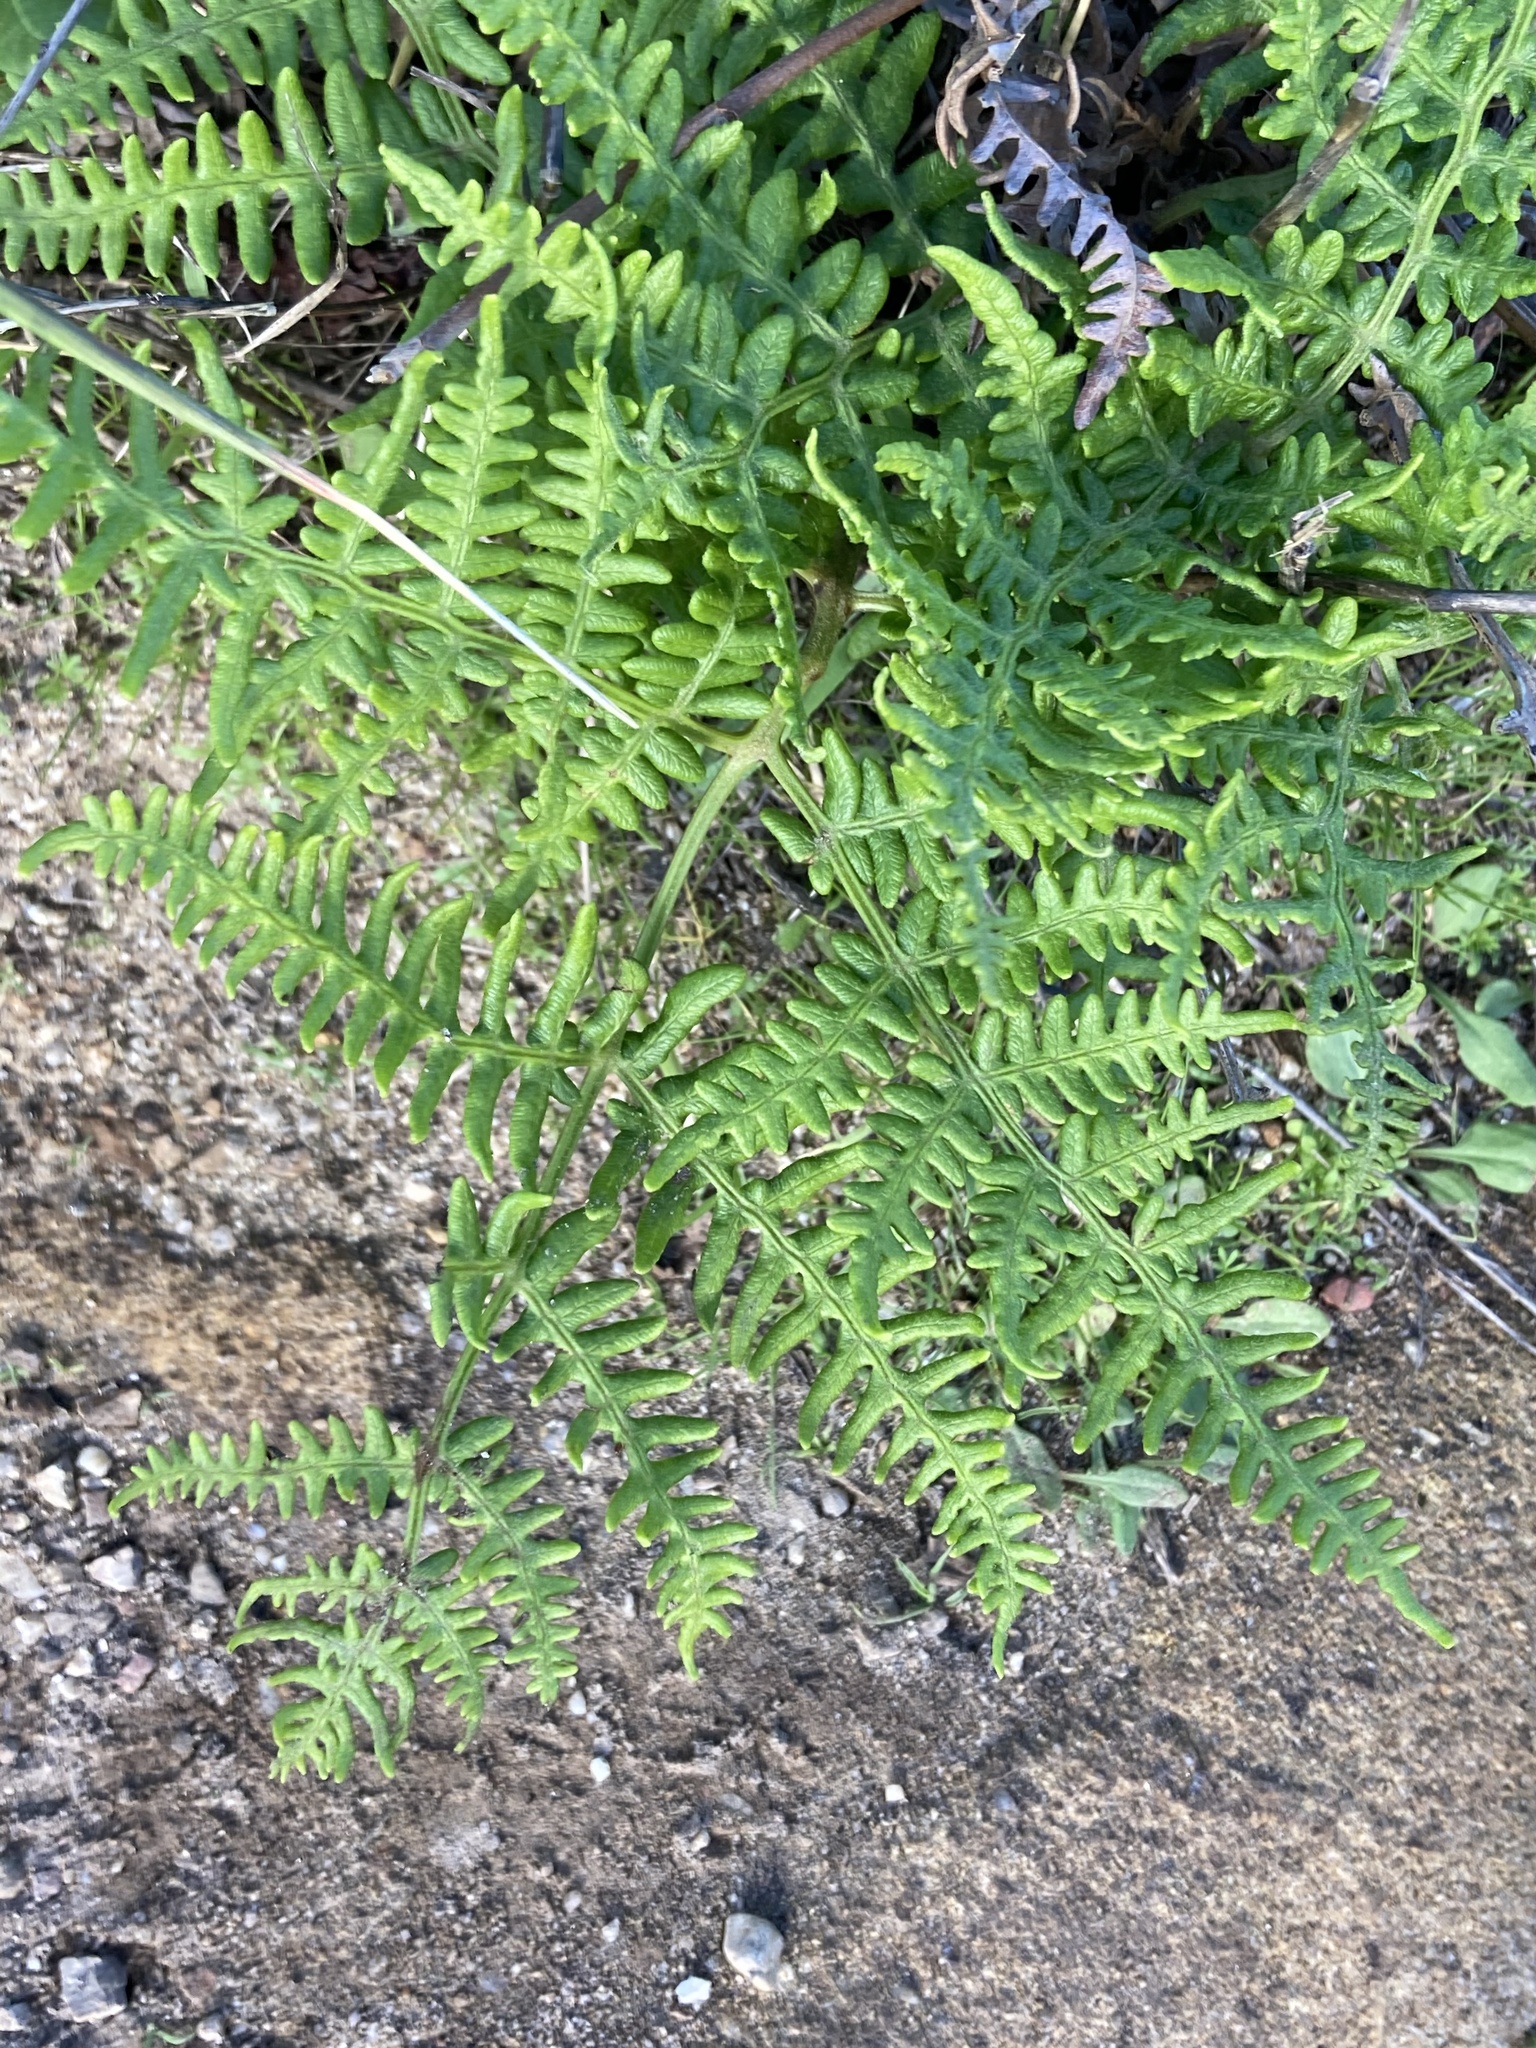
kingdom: Plantae
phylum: Tracheophyta
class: Polypodiopsida
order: Polypodiales
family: Dennstaedtiaceae
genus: Pteridium
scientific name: Pteridium aquilinum
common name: Bracken
